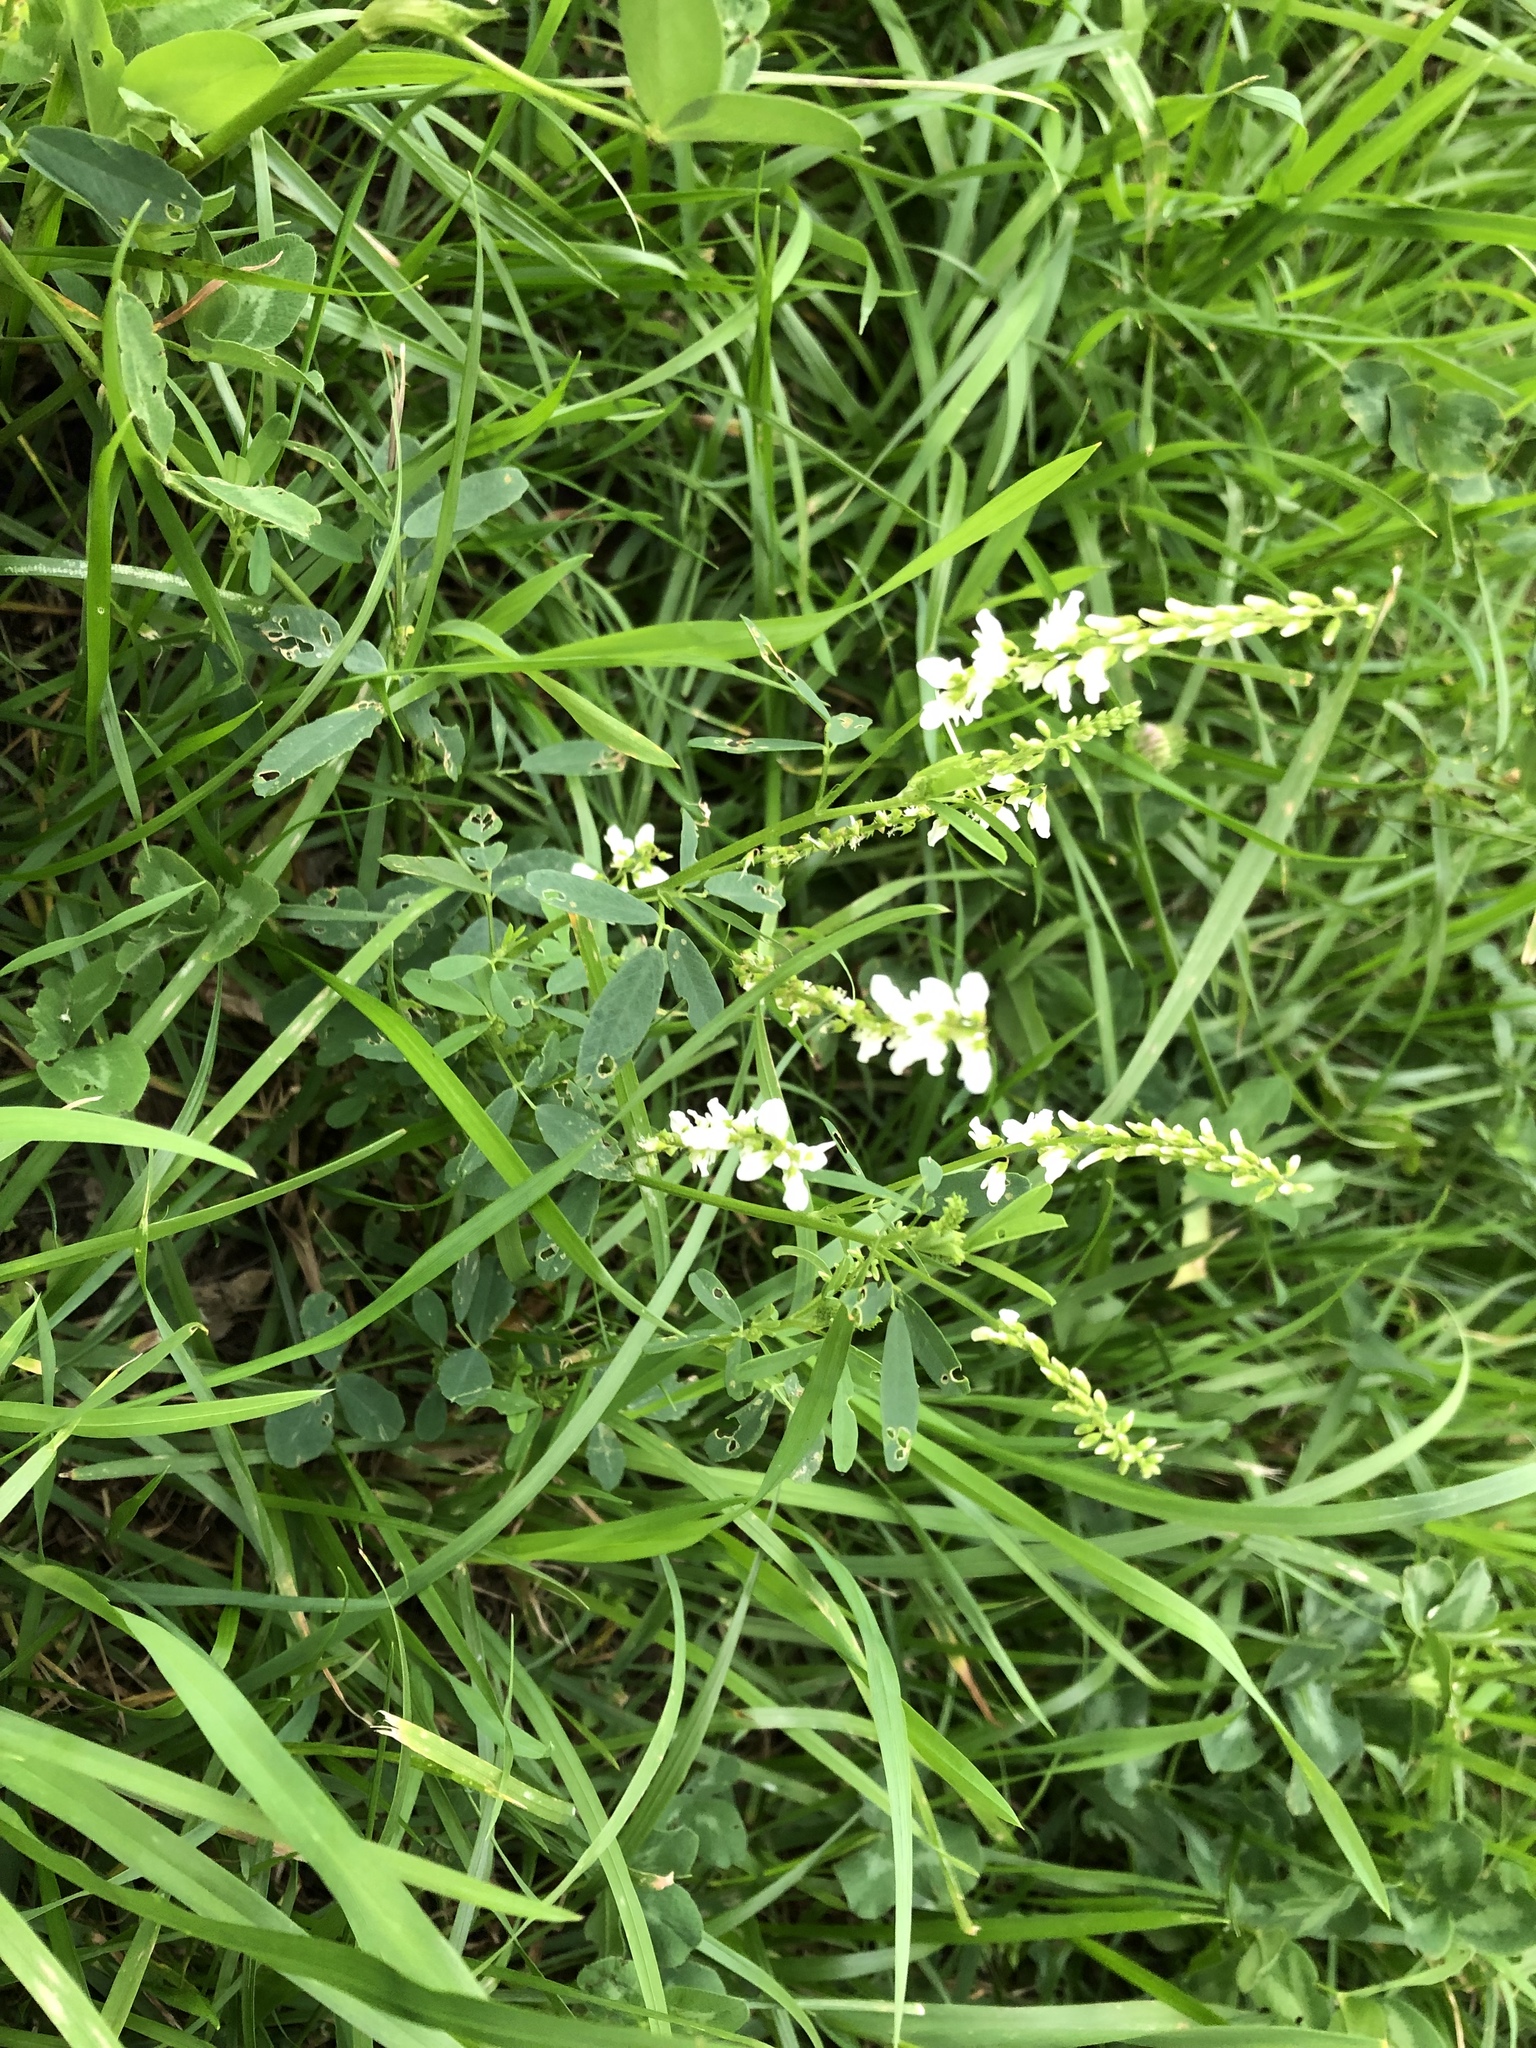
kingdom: Plantae
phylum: Tracheophyta
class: Magnoliopsida
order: Fabales
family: Fabaceae
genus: Melilotus
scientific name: Melilotus albus
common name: White melilot
